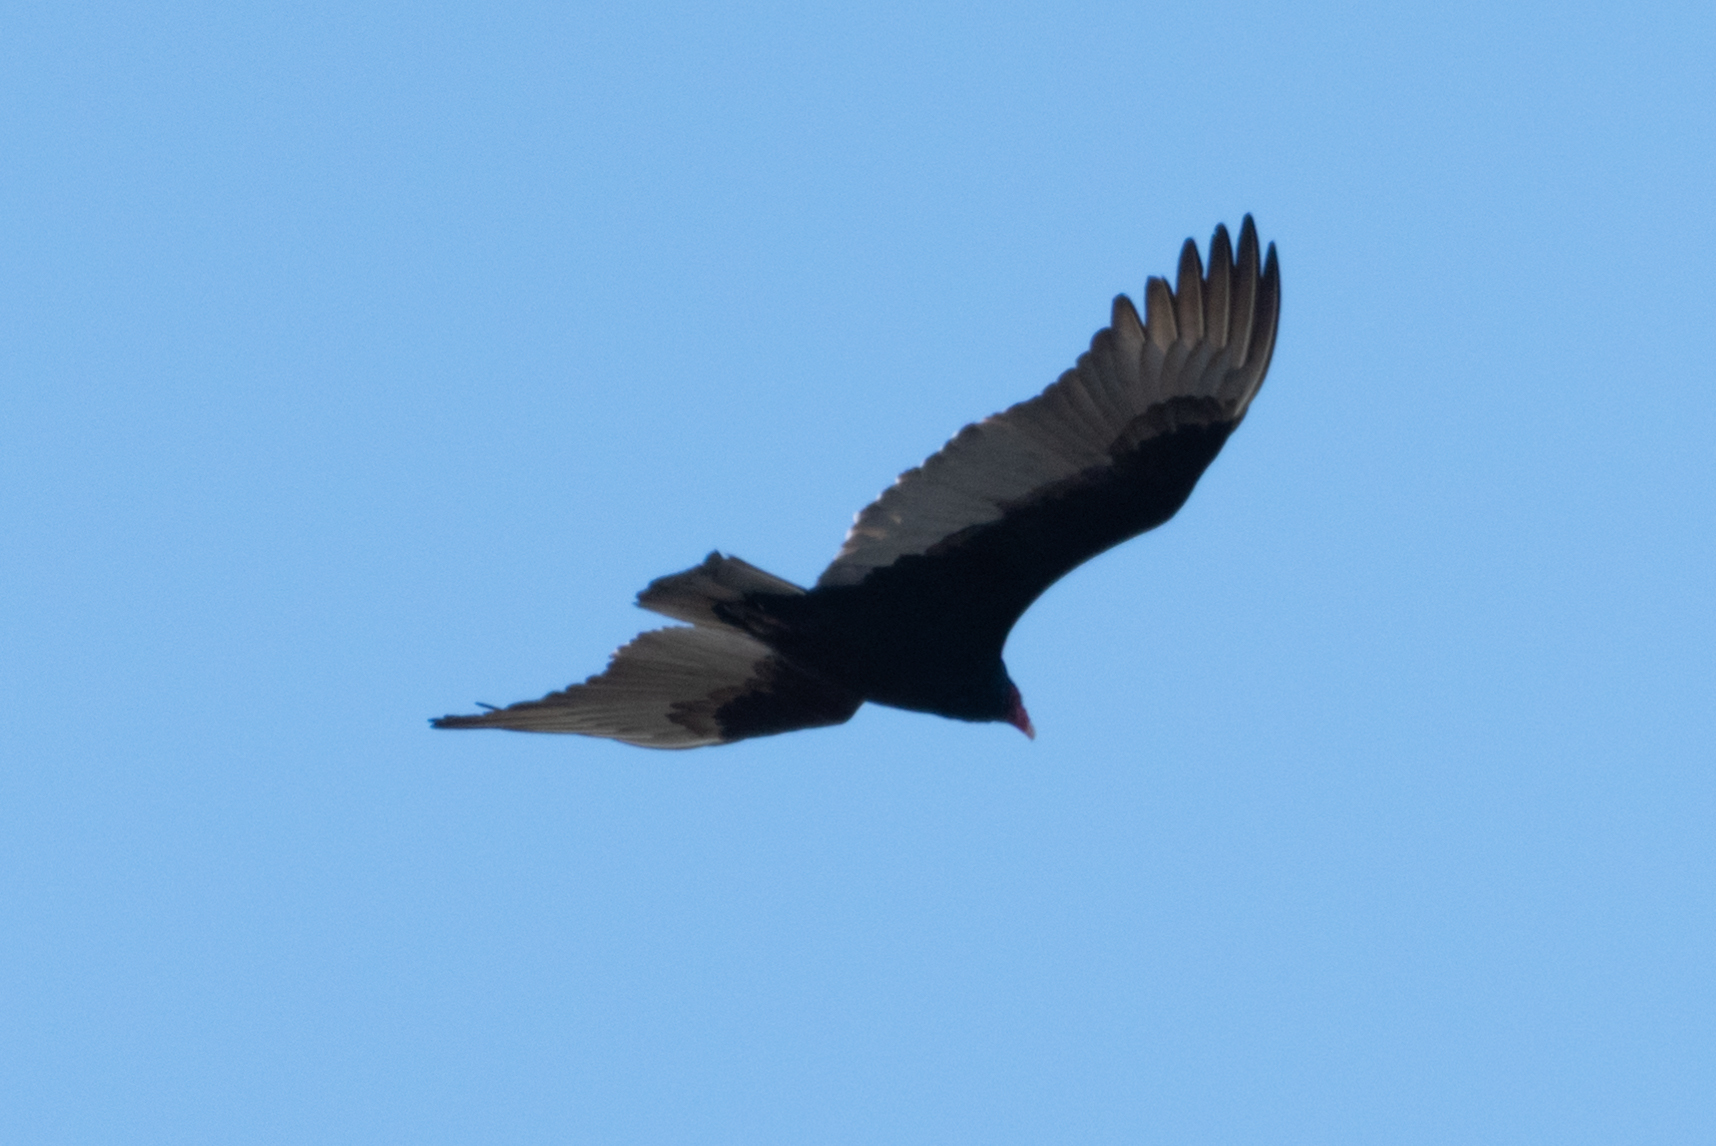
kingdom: Animalia
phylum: Chordata
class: Aves
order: Accipitriformes
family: Cathartidae
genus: Cathartes
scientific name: Cathartes aura
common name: Turkey vulture
